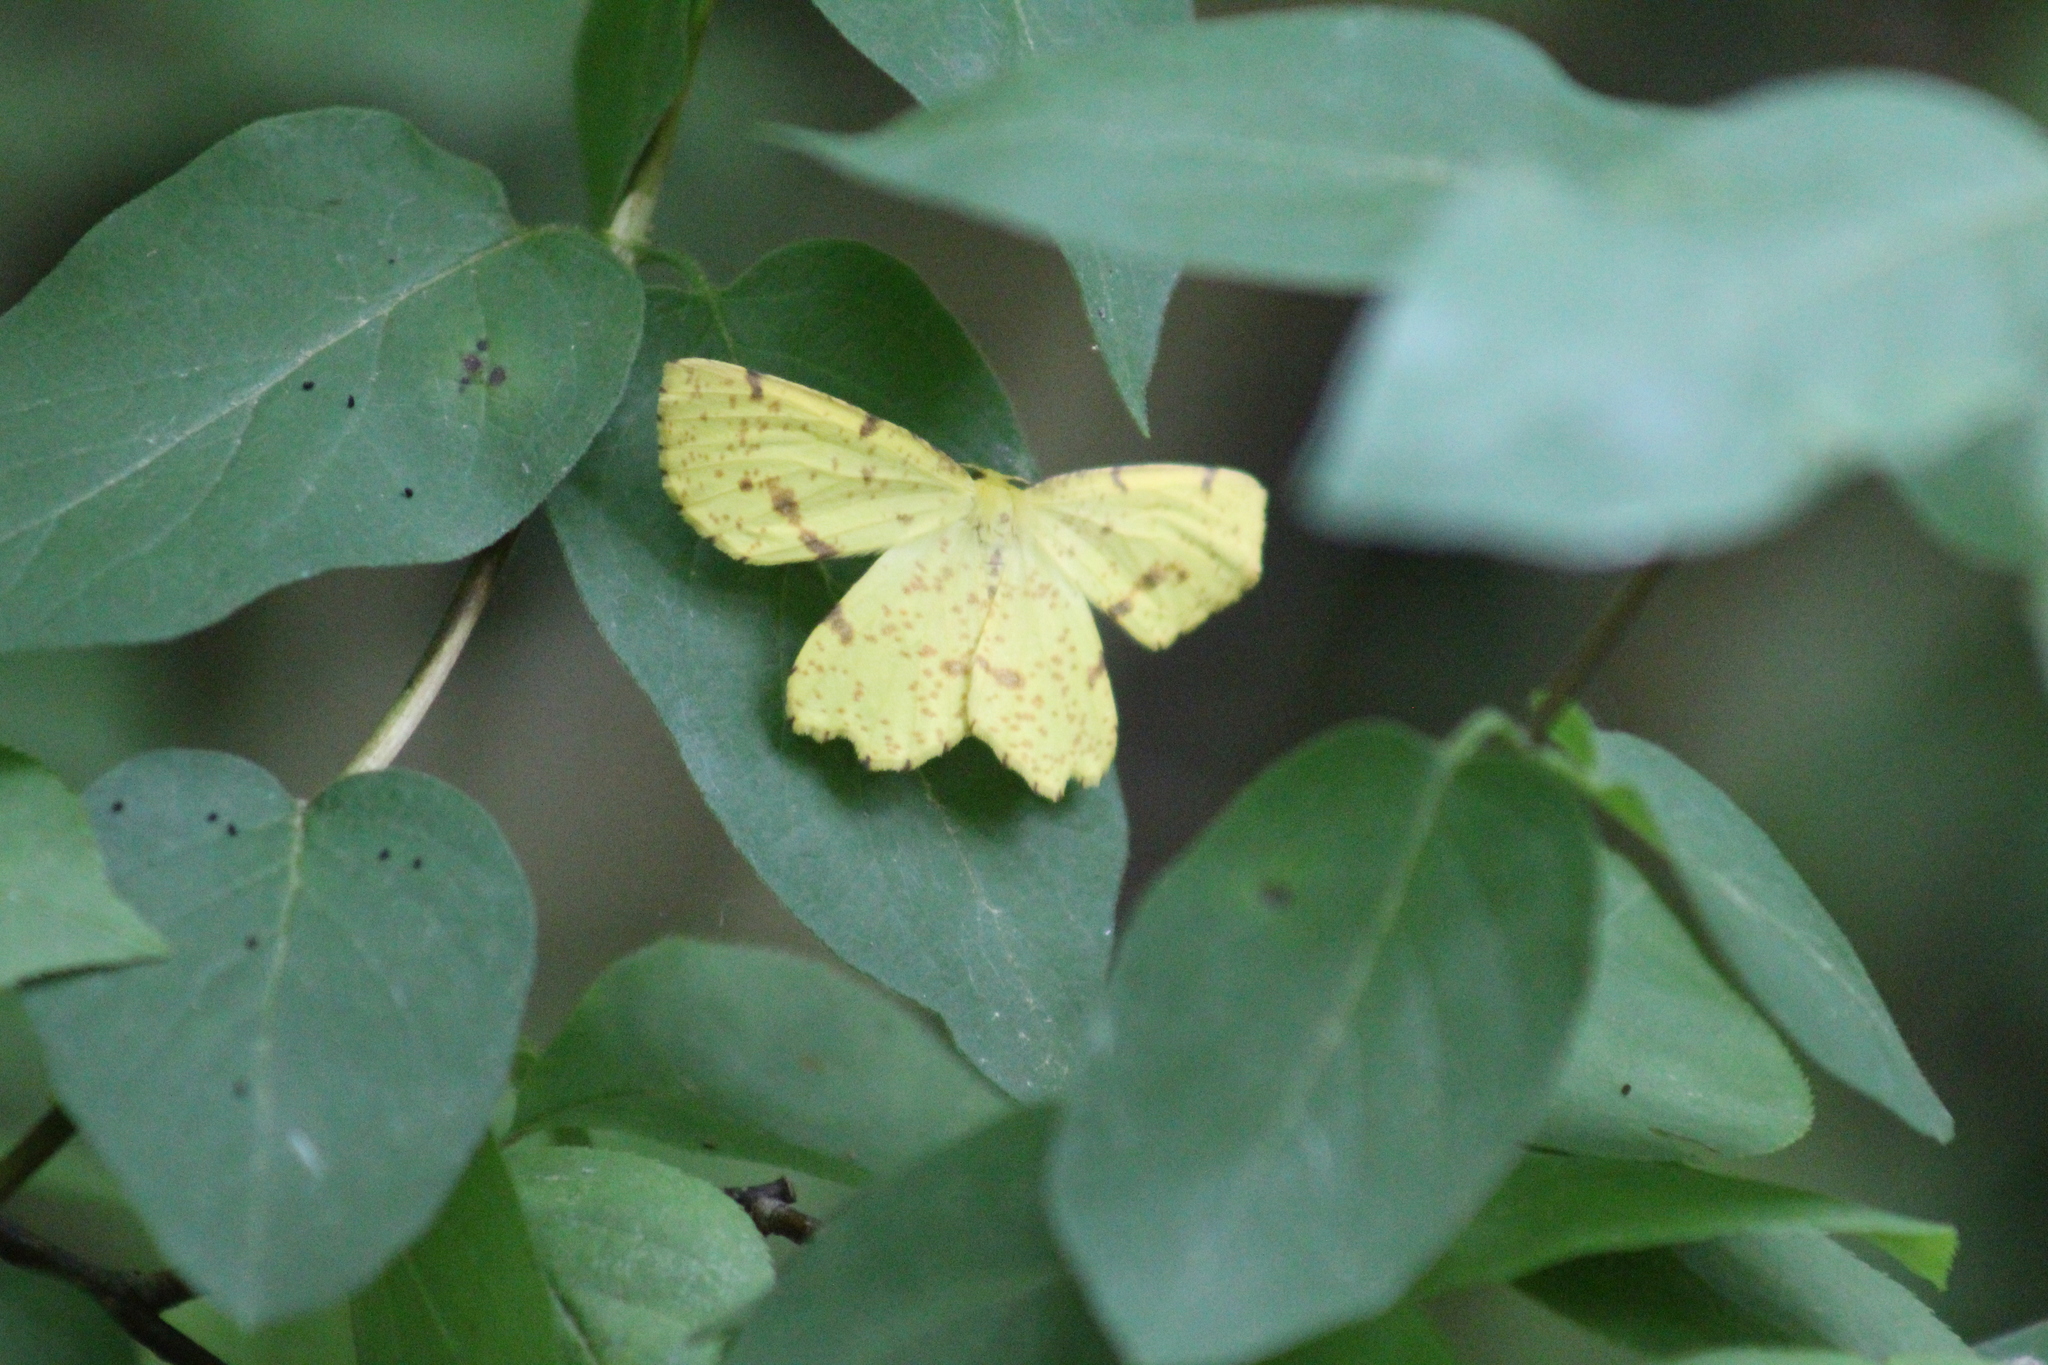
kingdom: Animalia
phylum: Arthropoda
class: Insecta
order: Lepidoptera
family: Geometridae
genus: Xanthotype
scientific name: Xanthotype
